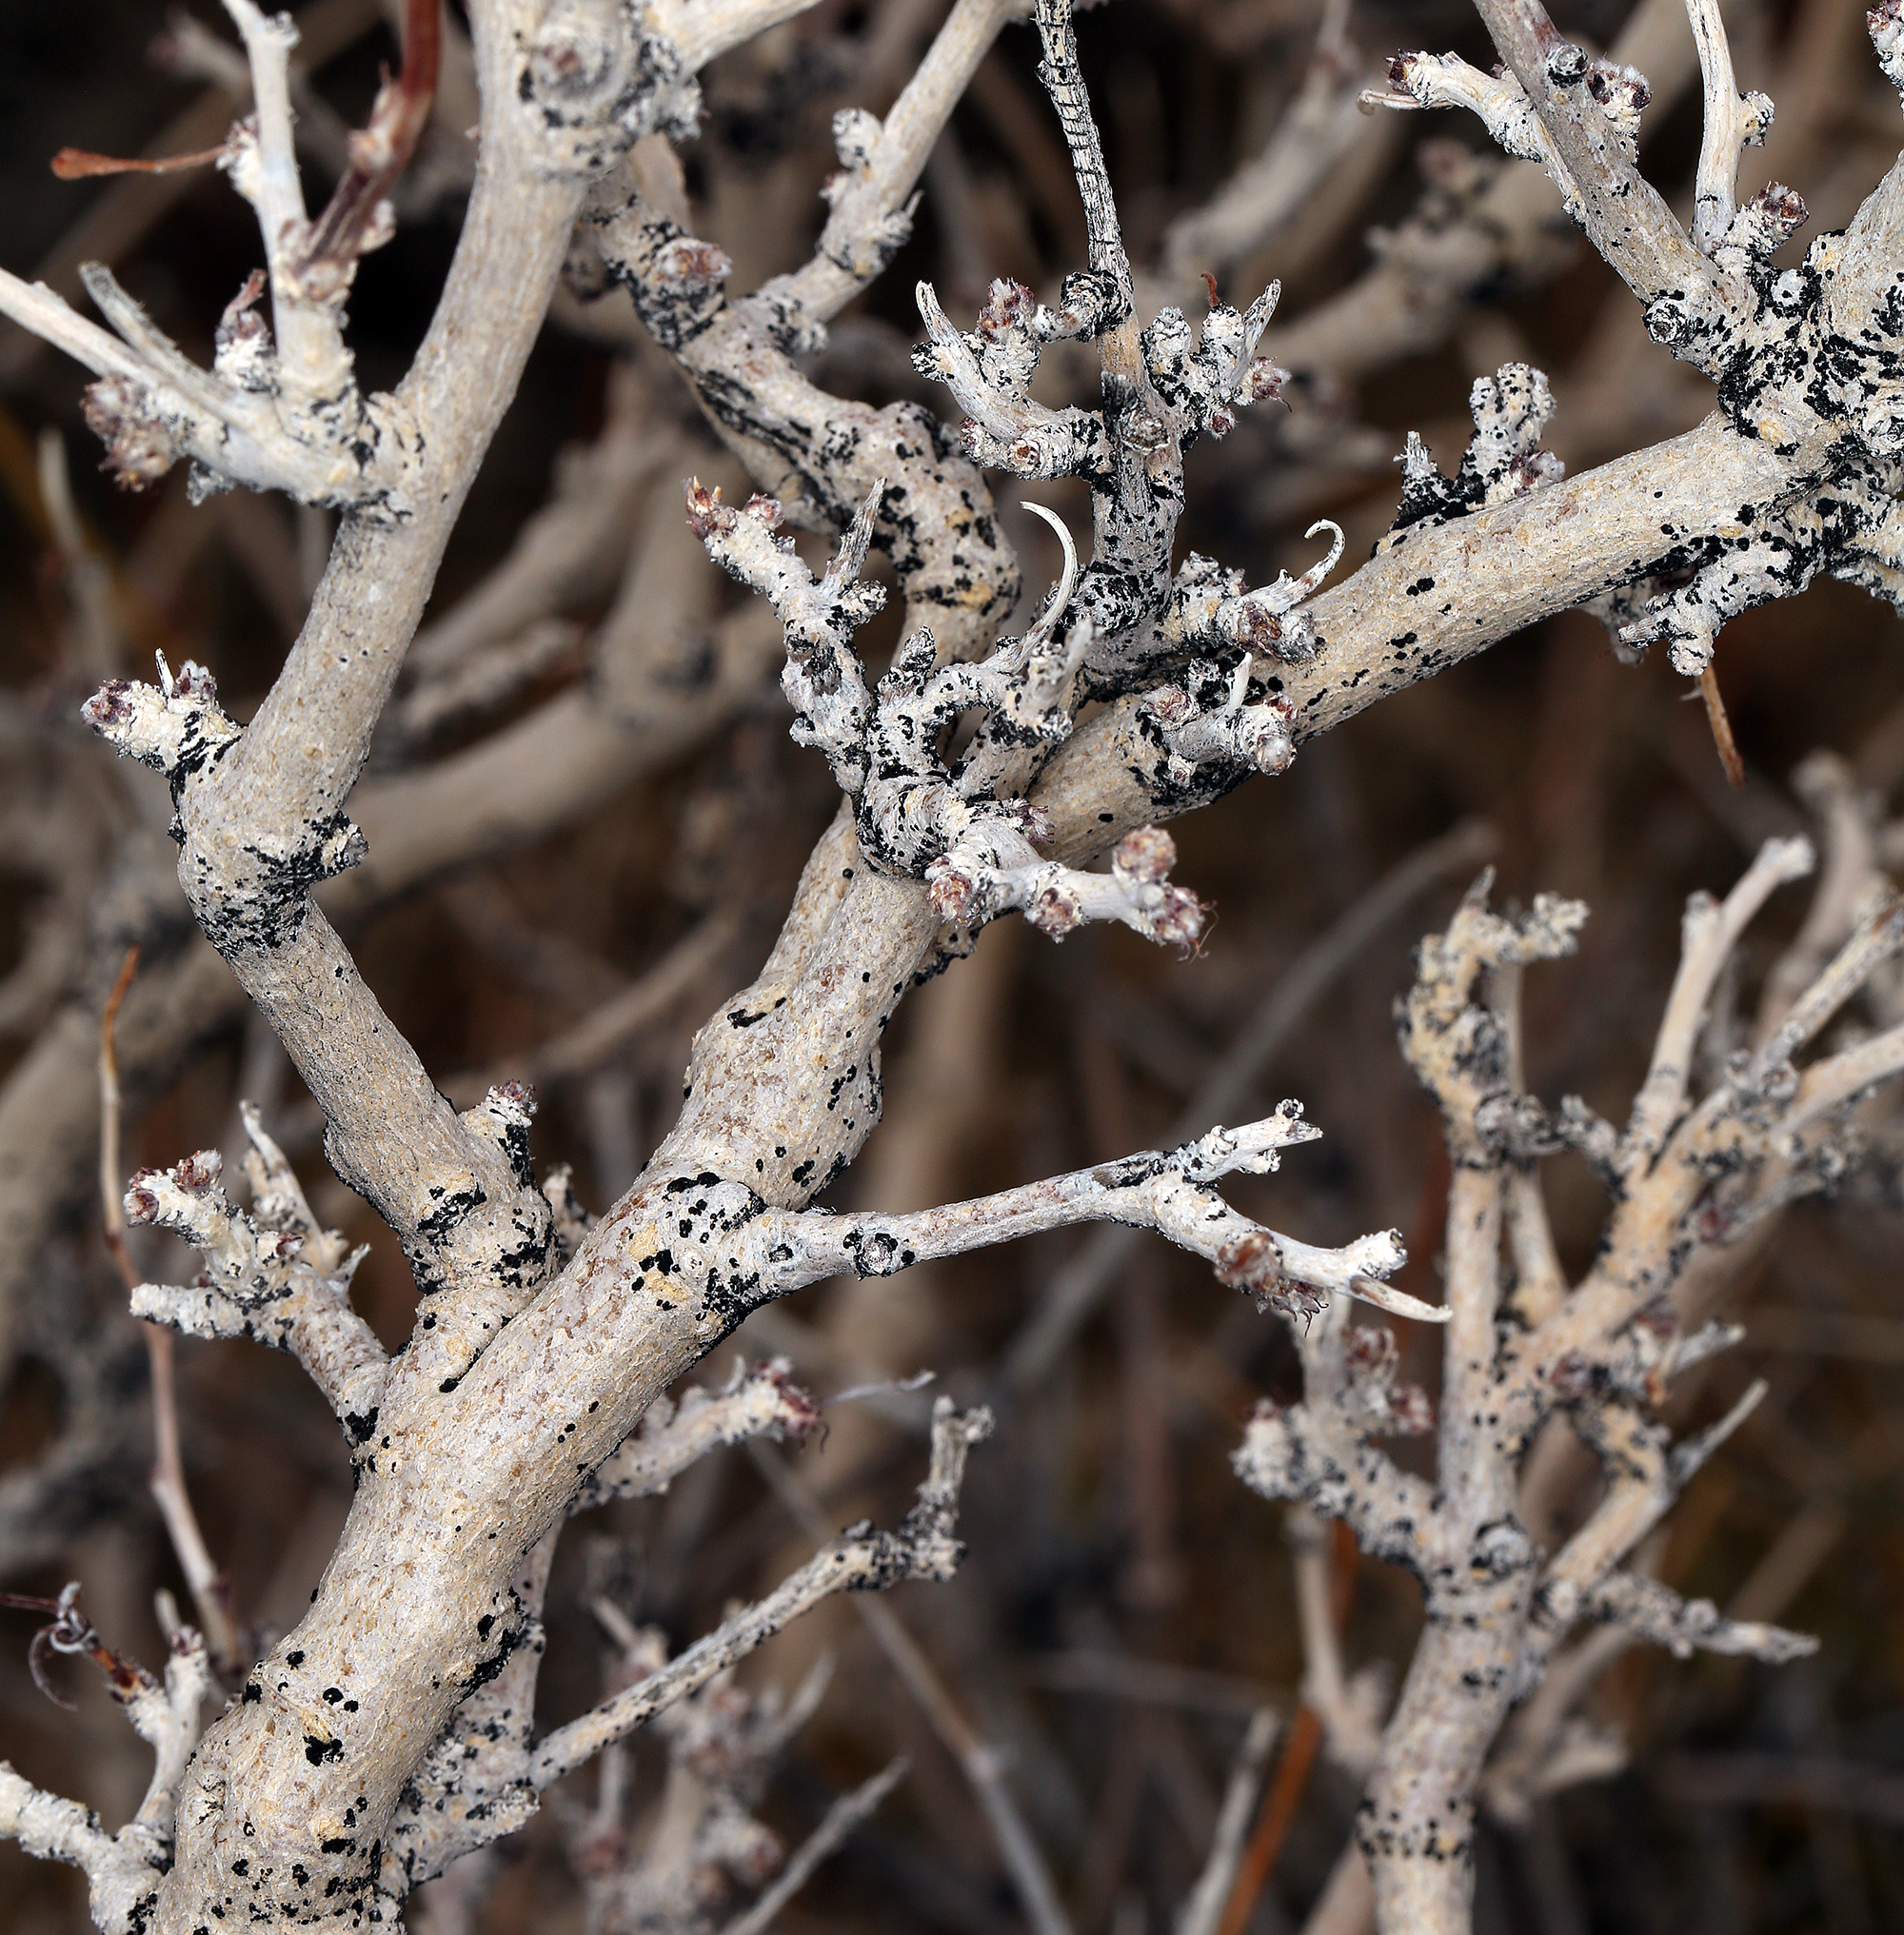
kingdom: Plantae
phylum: Tracheophyta
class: Magnoliopsida
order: Fabales
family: Fabaceae
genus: Psorothamnus
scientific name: Psorothamnus arborescens
